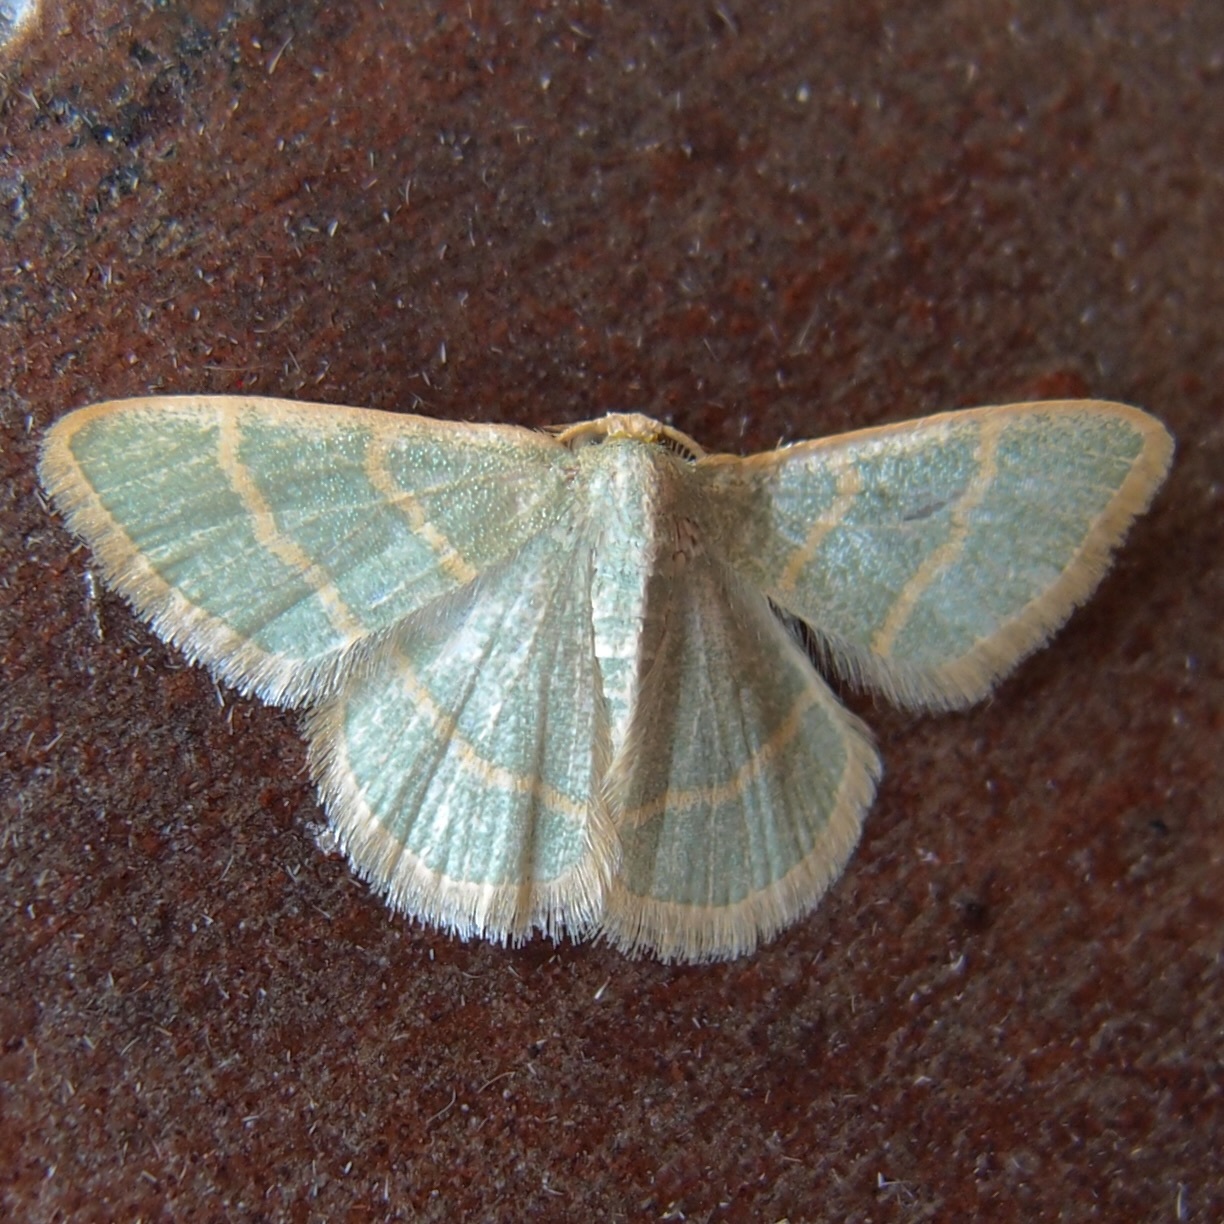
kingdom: Animalia
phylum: Arthropoda
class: Insecta
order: Lepidoptera
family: Geometridae
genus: Chlorochlamys
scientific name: Chlorochlamys appellaria
